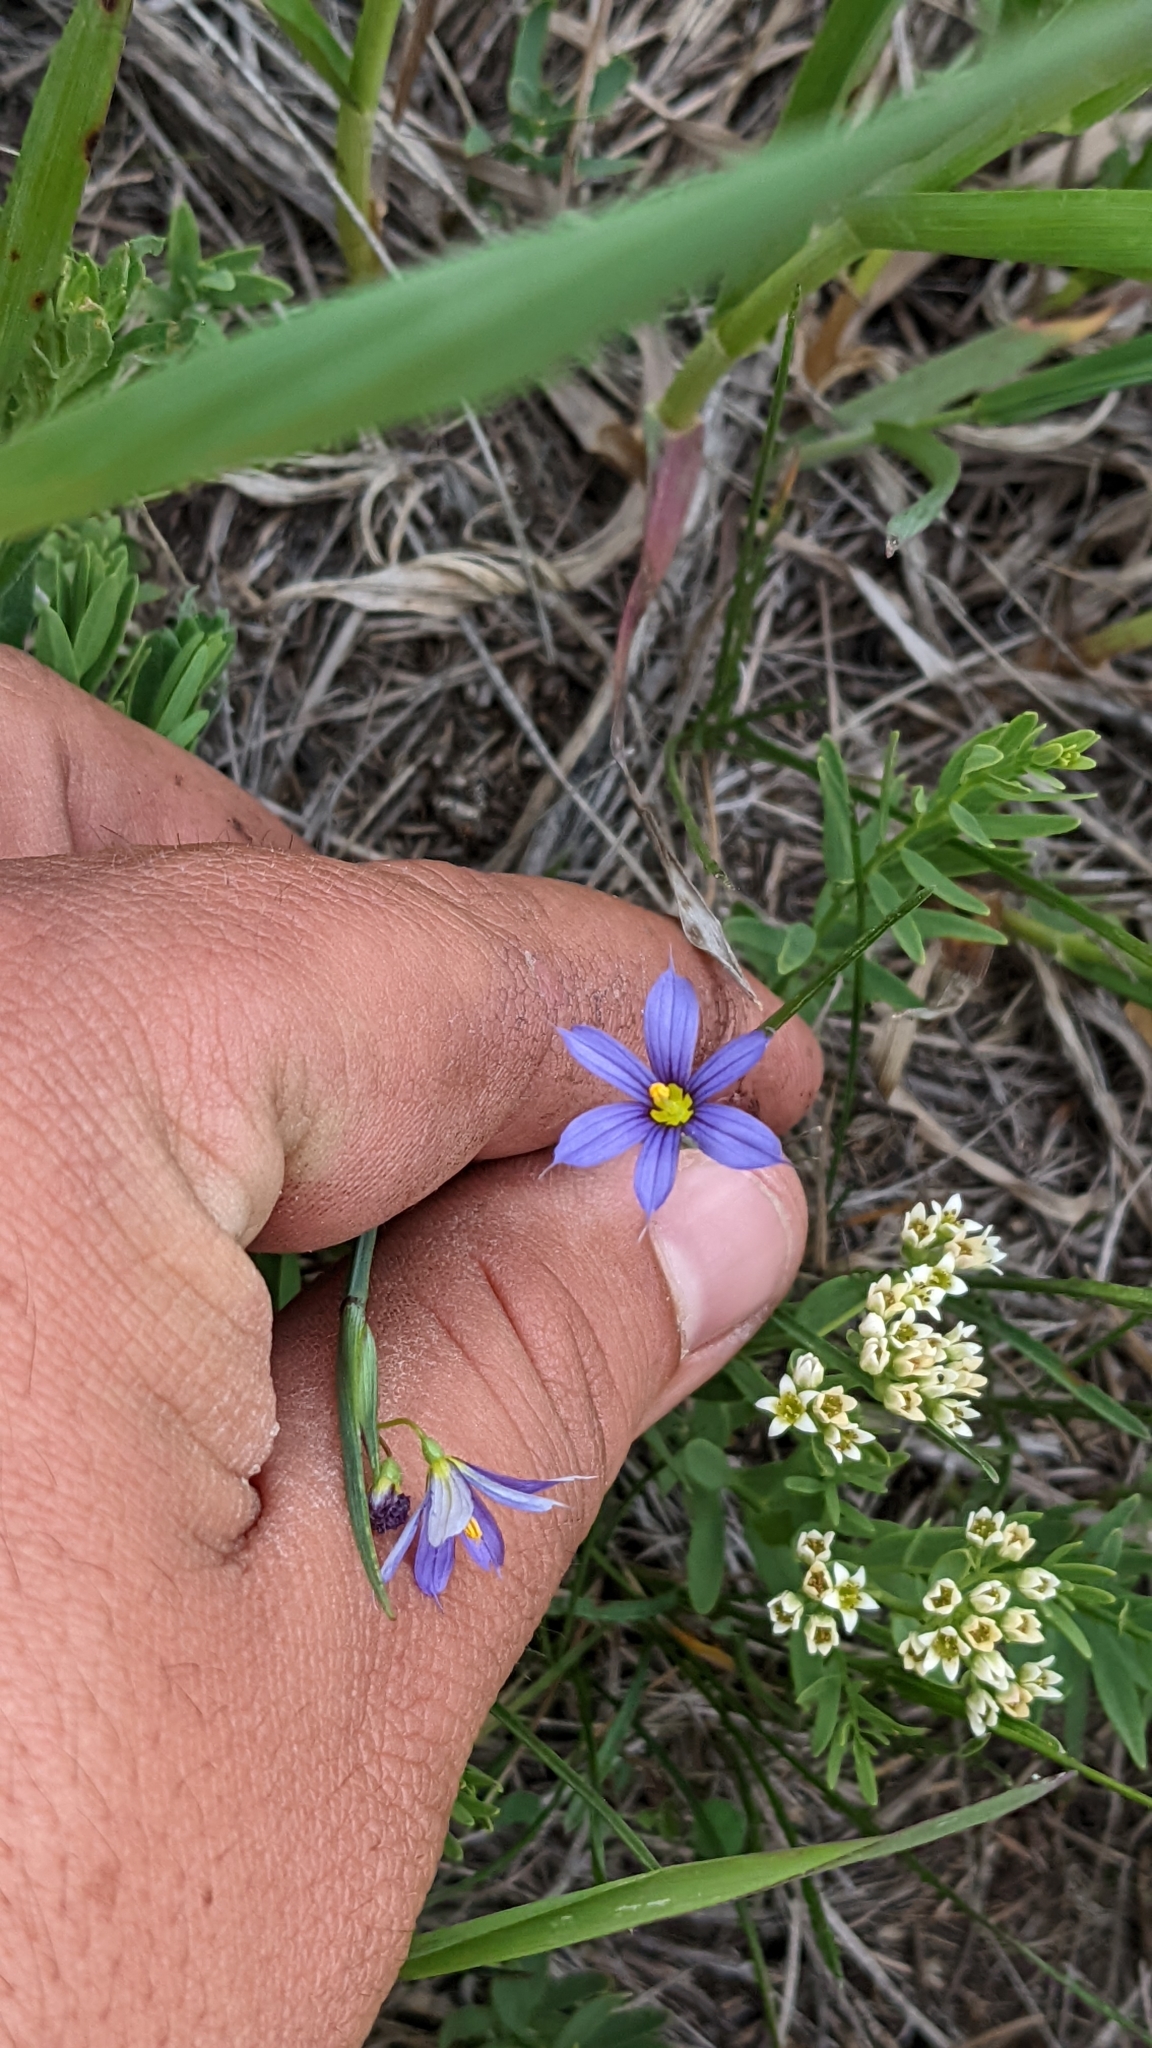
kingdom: Plantae
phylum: Tracheophyta
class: Liliopsida
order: Asparagales
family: Iridaceae
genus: Sisyrinchium
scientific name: Sisyrinchium montanum
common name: American blue-eyed-grass
